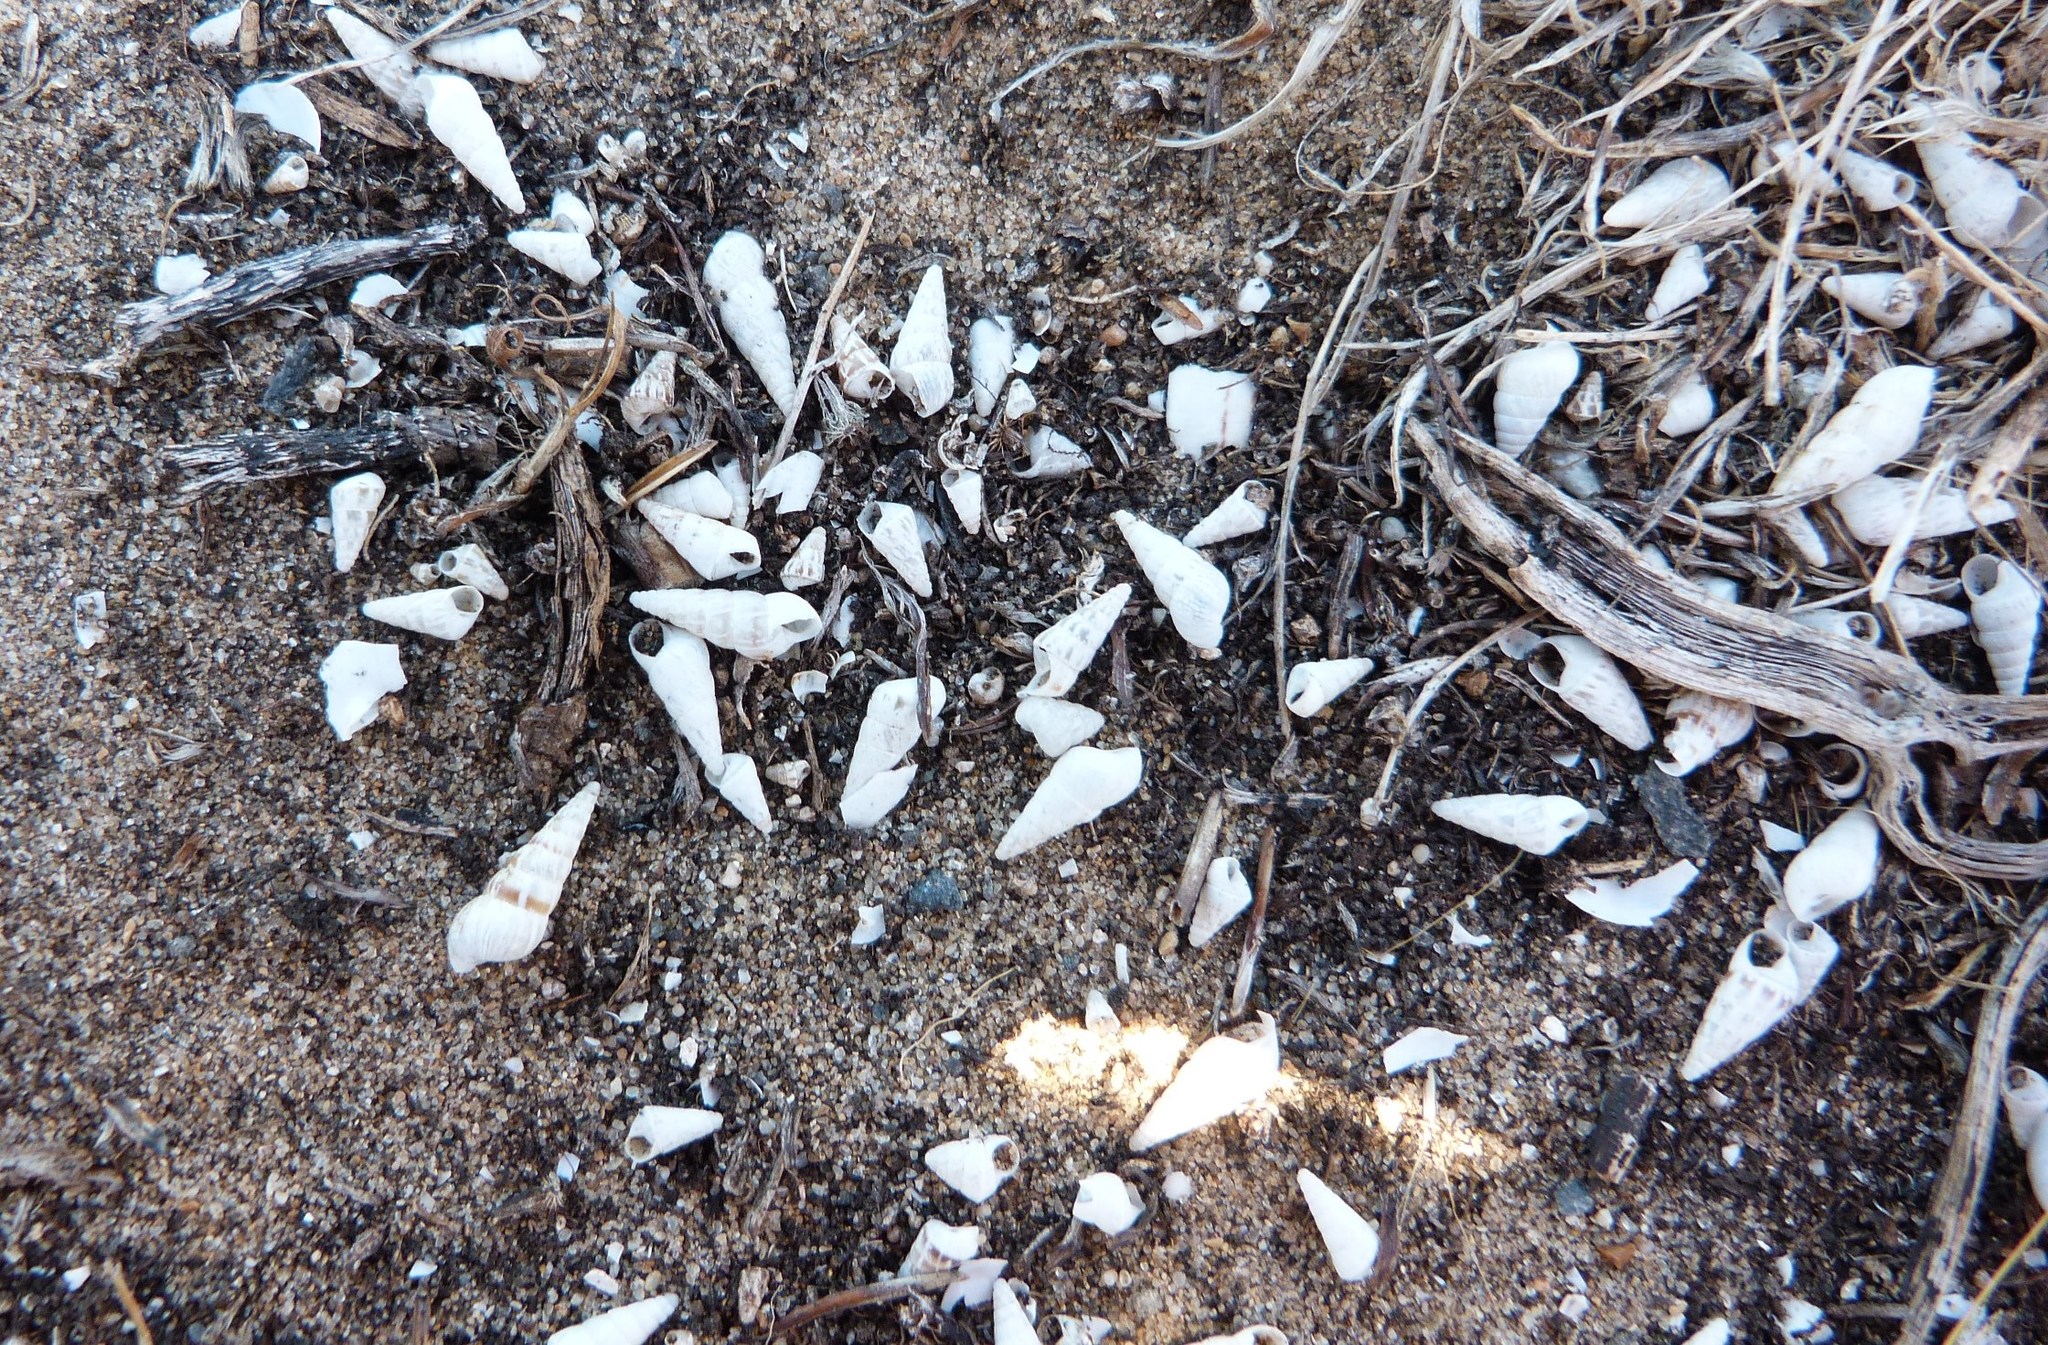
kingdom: Animalia
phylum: Mollusca
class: Gastropoda
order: Stylommatophora
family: Geomitridae
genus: Cochlicella
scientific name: Cochlicella acuta
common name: Pointed snail
